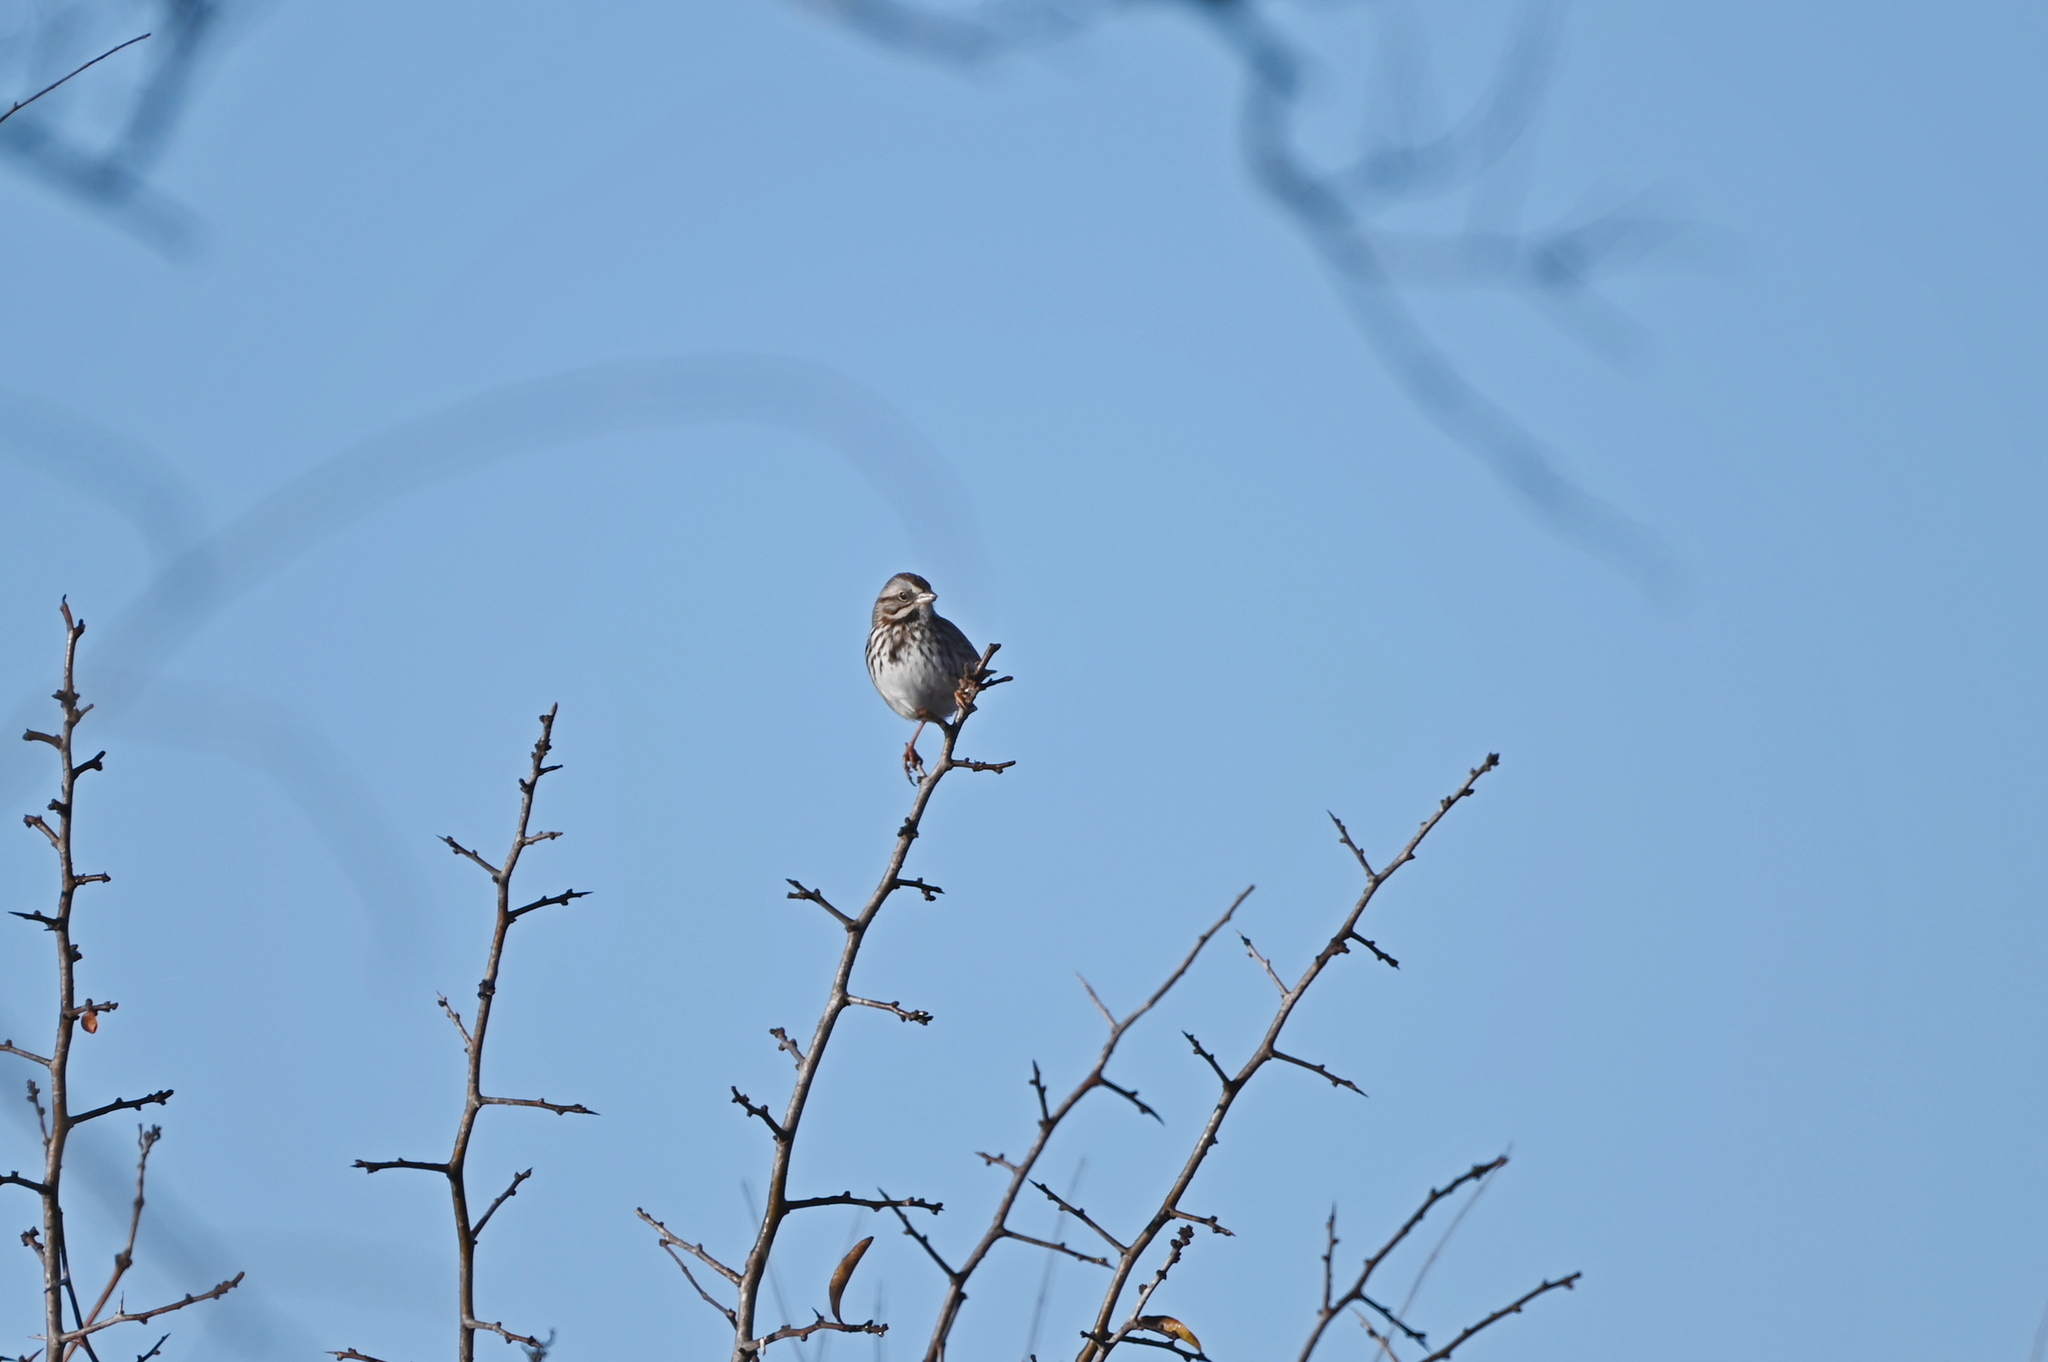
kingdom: Animalia
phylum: Chordata
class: Aves
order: Passeriformes
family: Passerellidae
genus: Melospiza
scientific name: Melospiza melodia
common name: Song sparrow
